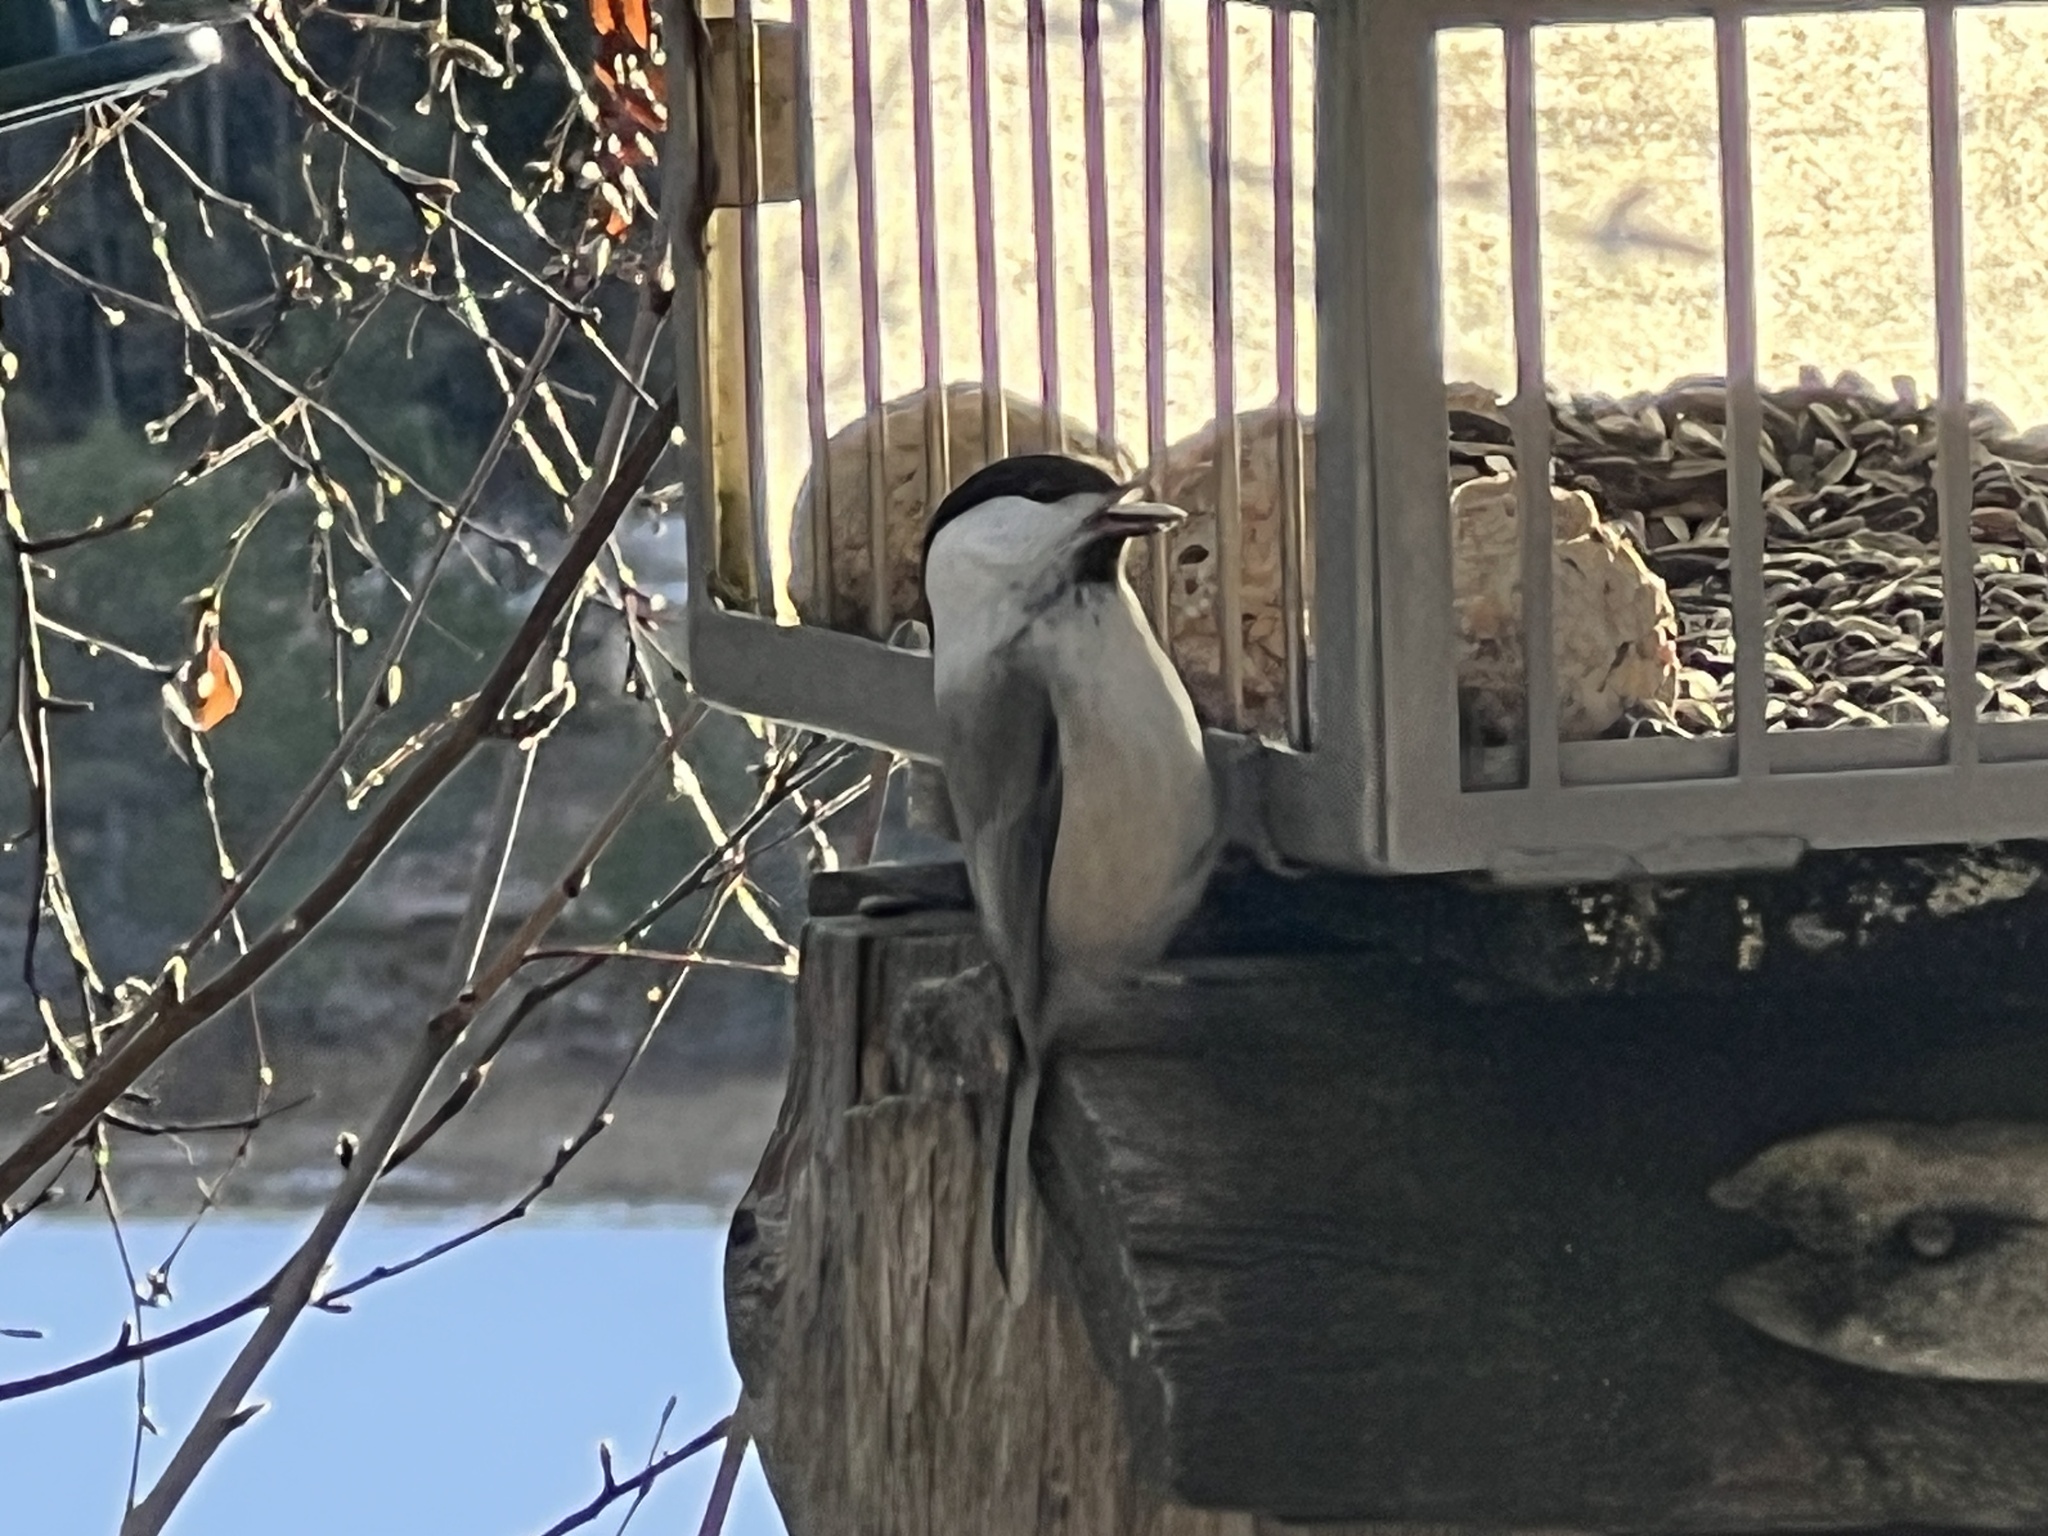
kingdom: Animalia
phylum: Chordata
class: Aves
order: Passeriformes
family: Paridae
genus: Poecile
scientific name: Poecile montanus
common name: Willow tit
